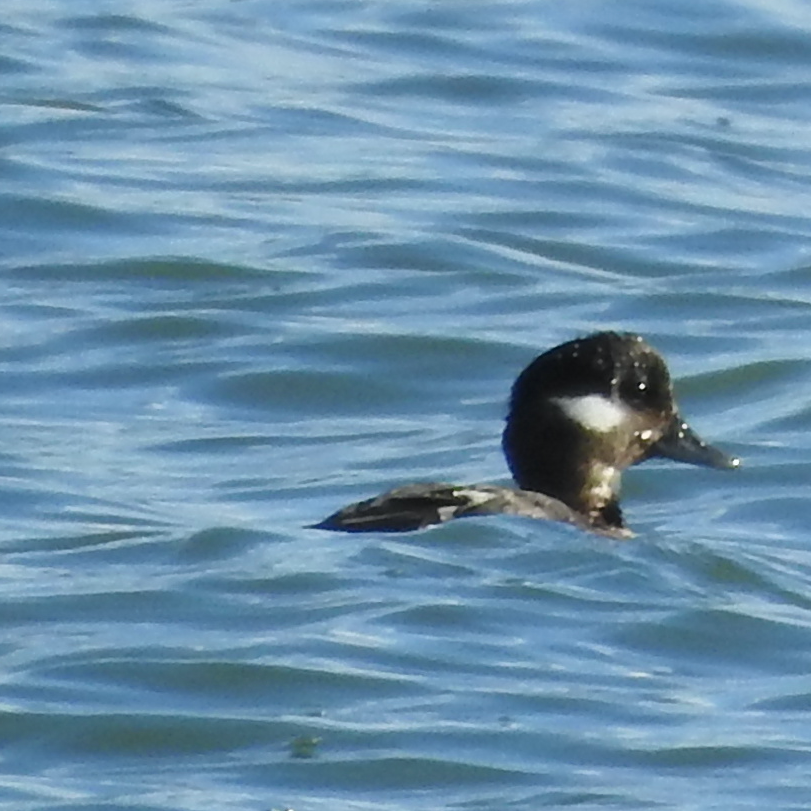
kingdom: Animalia
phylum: Chordata
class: Aves
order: Anseriformes
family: Anatidae
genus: Bucephala
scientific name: Bucephala albeola
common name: Bufflehead
